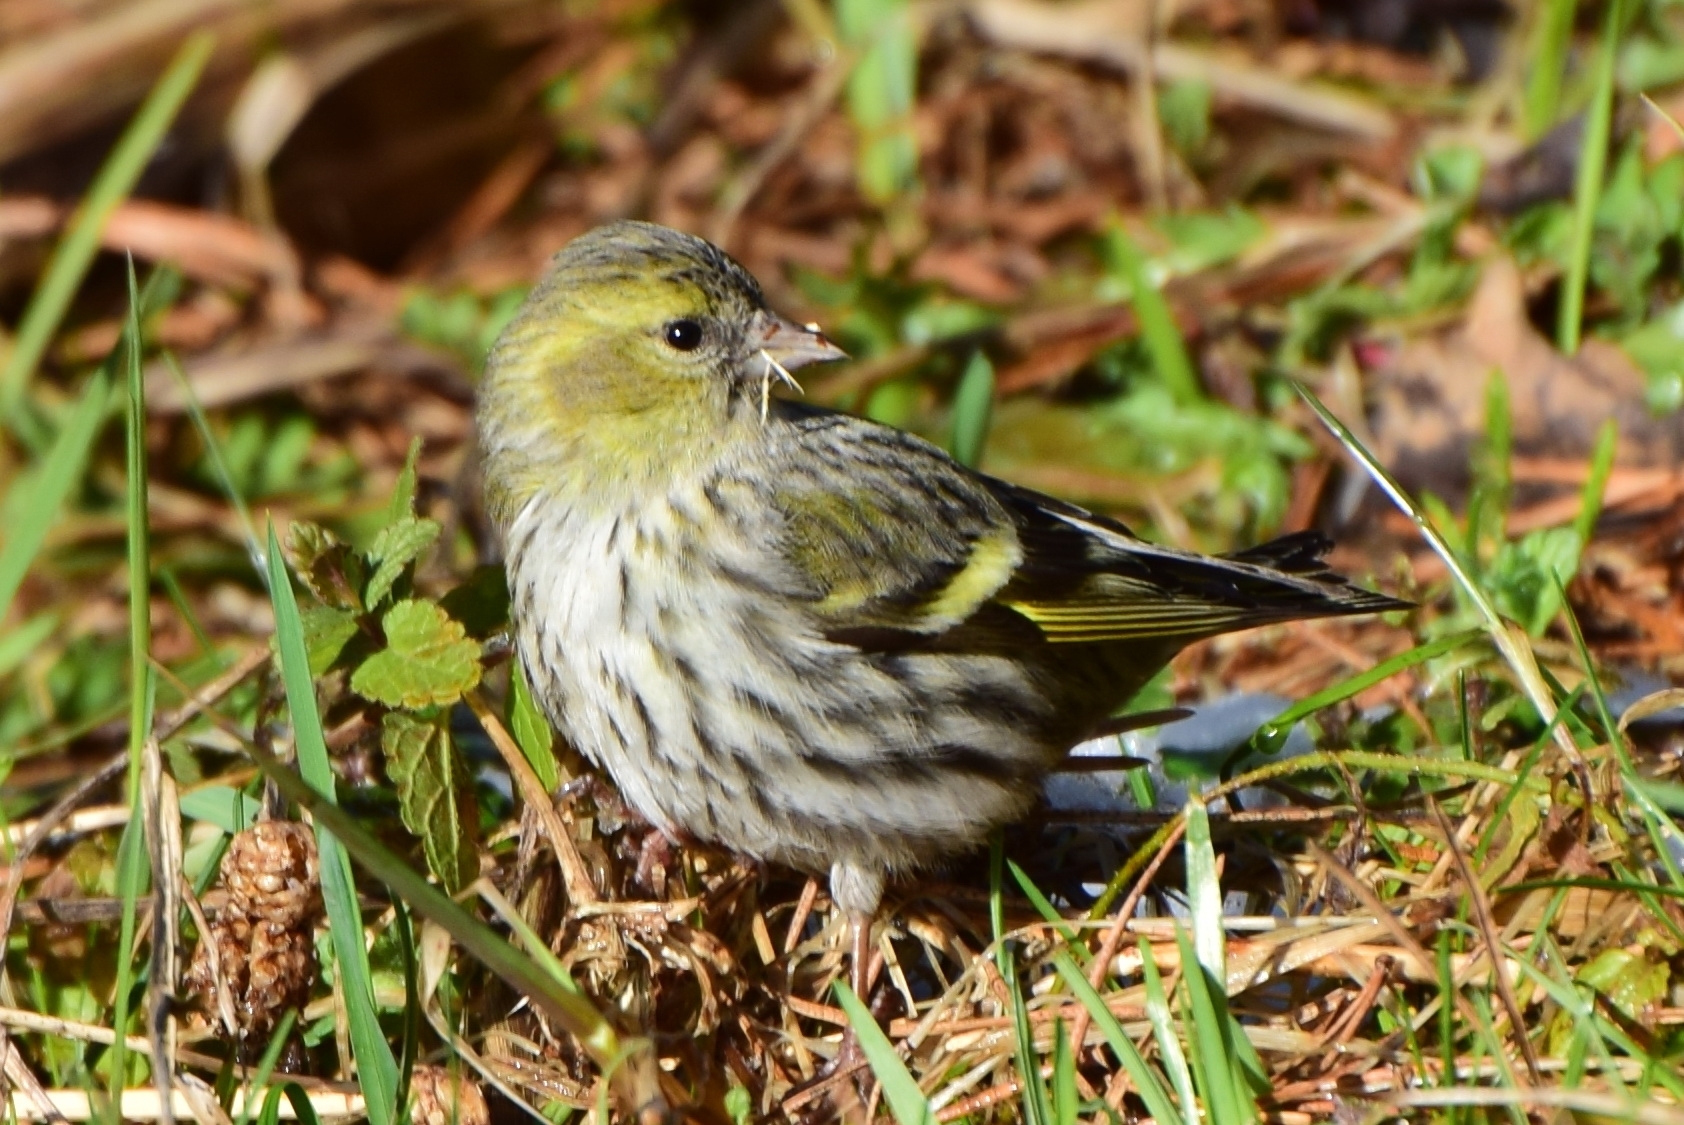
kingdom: Animalia
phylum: Chordata
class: Aves
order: Passeriformes
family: Fringillidae
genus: Spinus
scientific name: Spinus spinus
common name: Eurasian siskin
